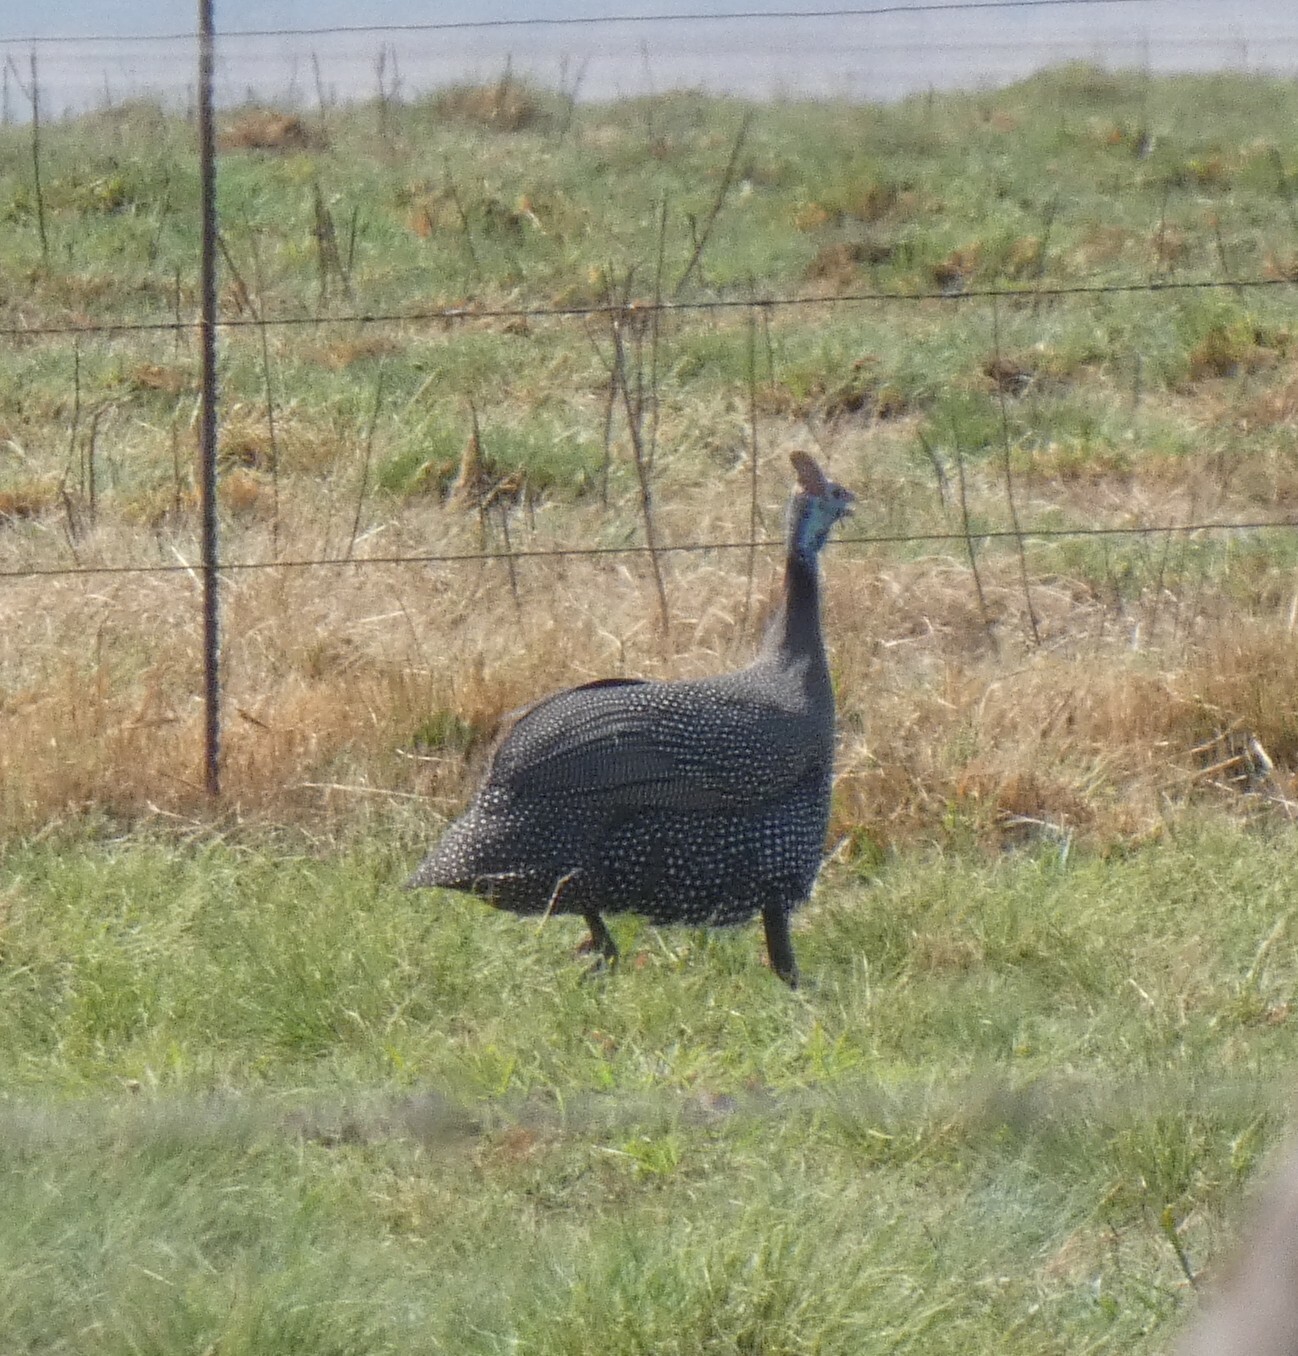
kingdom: Animalia
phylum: Chordata
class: Aves
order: Galliformes
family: Numididae
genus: Numida
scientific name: Numida meleagris
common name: Helmeted guineafowl
